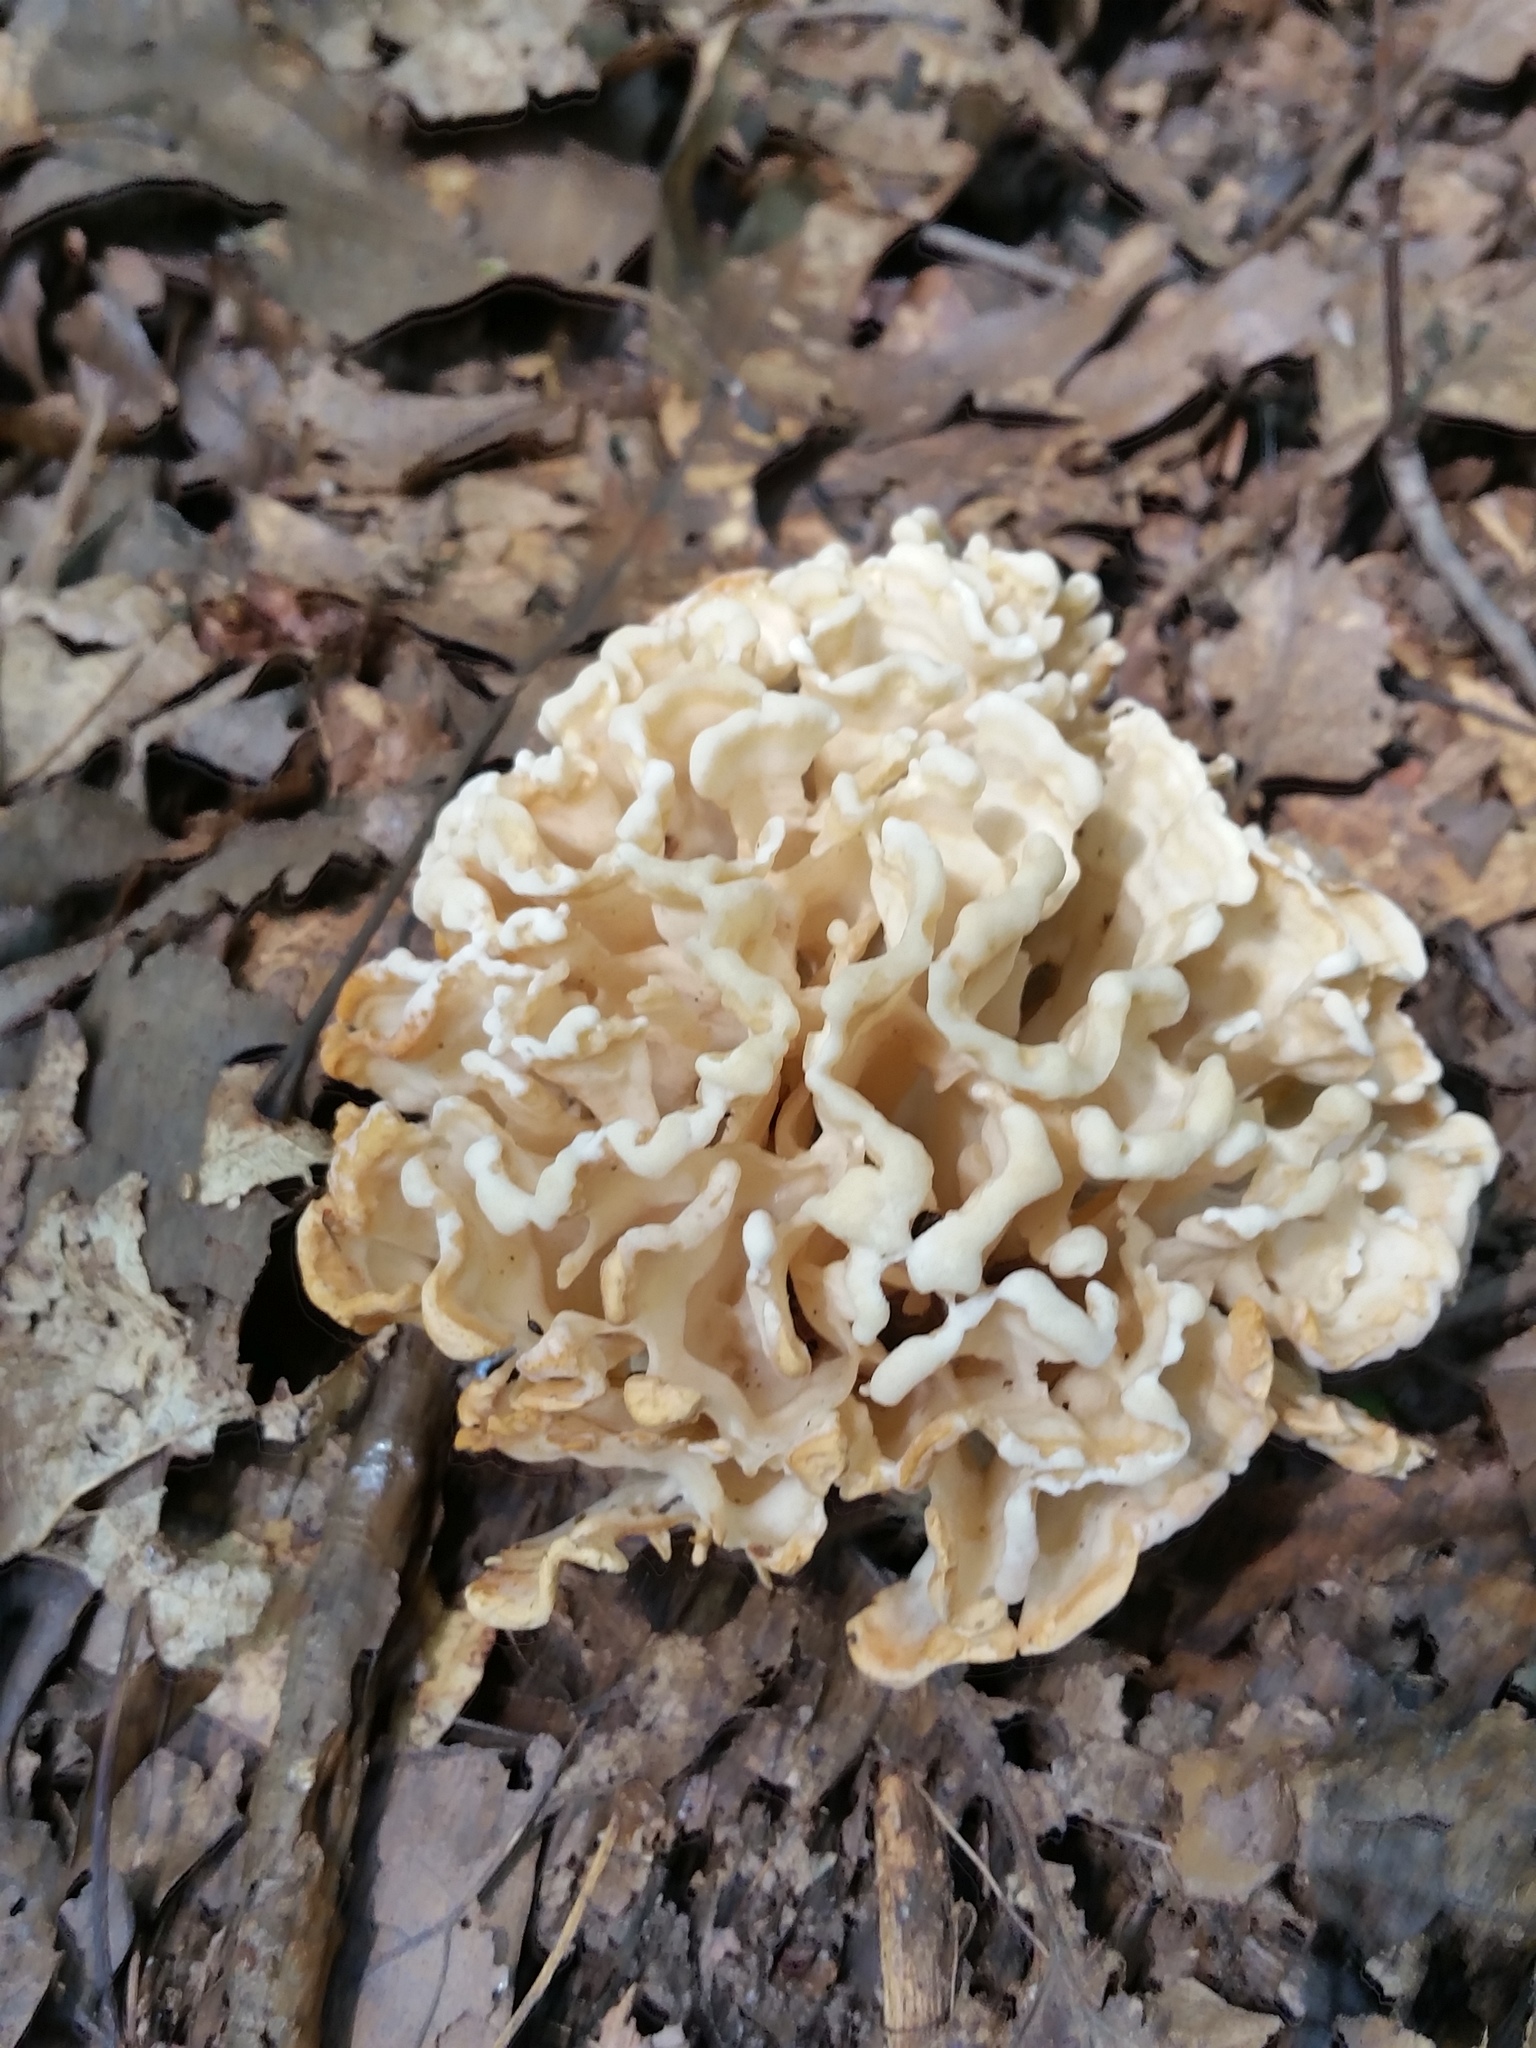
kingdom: Fungi
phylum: Basidiomycota
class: Agaricomycetes
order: Polyporales
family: Sparassidaceae
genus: Sparassis
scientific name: Sparassis spathulata
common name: Eastern cauliflower mushroom
